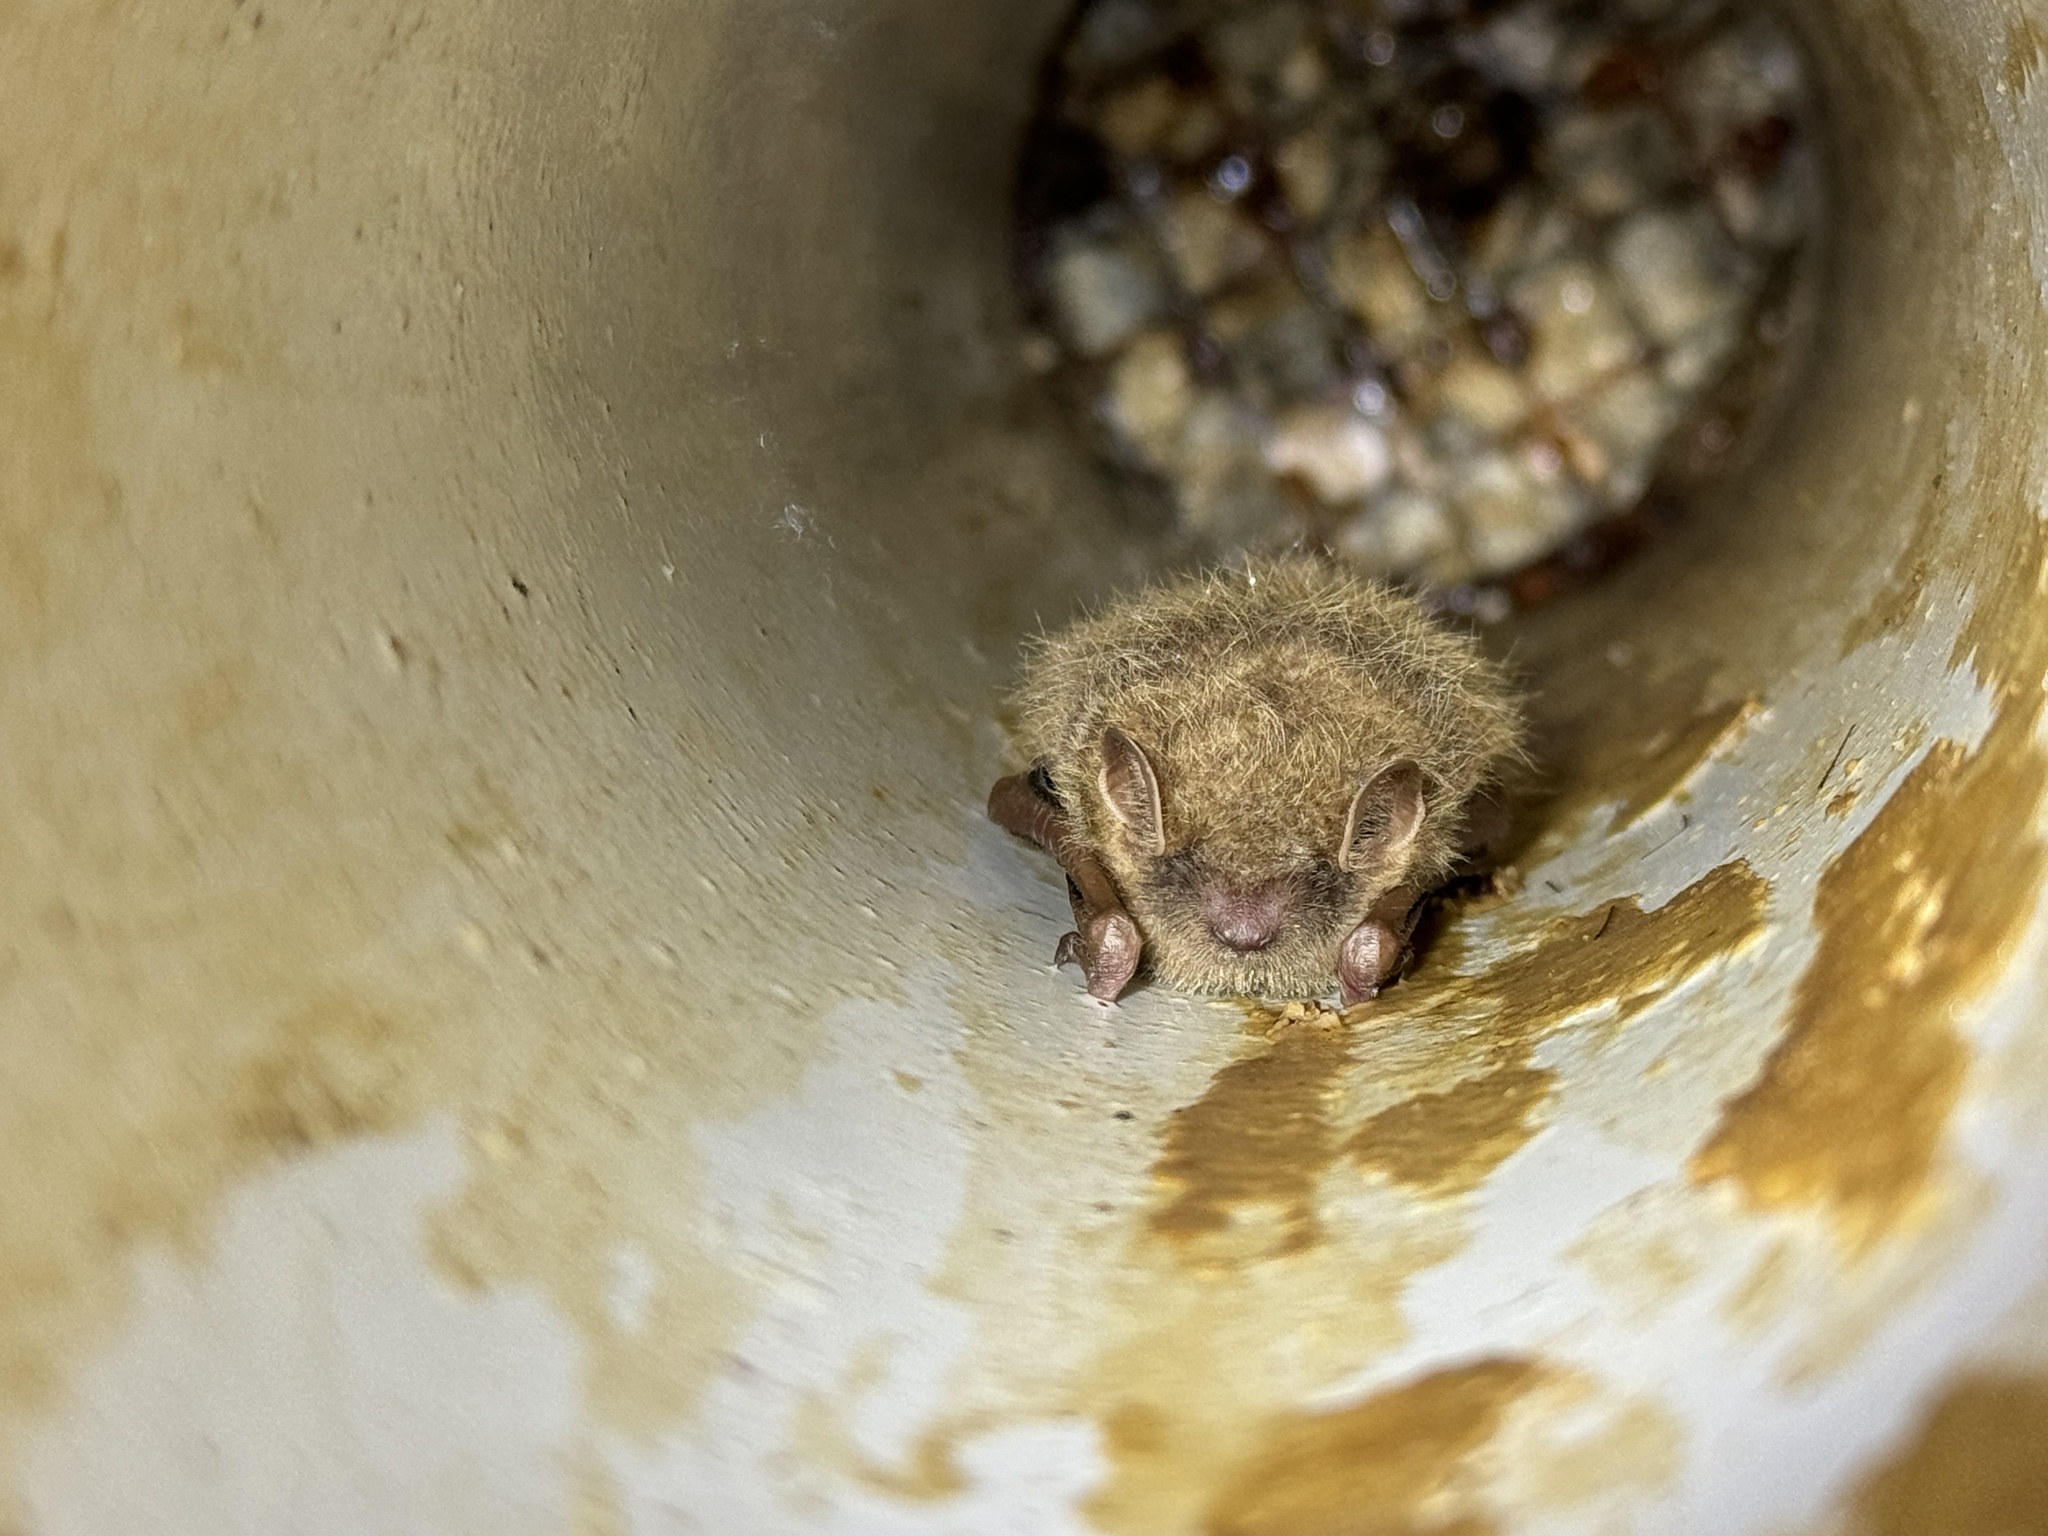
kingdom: Animalia
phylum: Chordata
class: Mammalia
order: Chiroptera
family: Vespertilionidae
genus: Perimyotis
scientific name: Perimyotis subflavus
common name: Eastern pipistrelle
